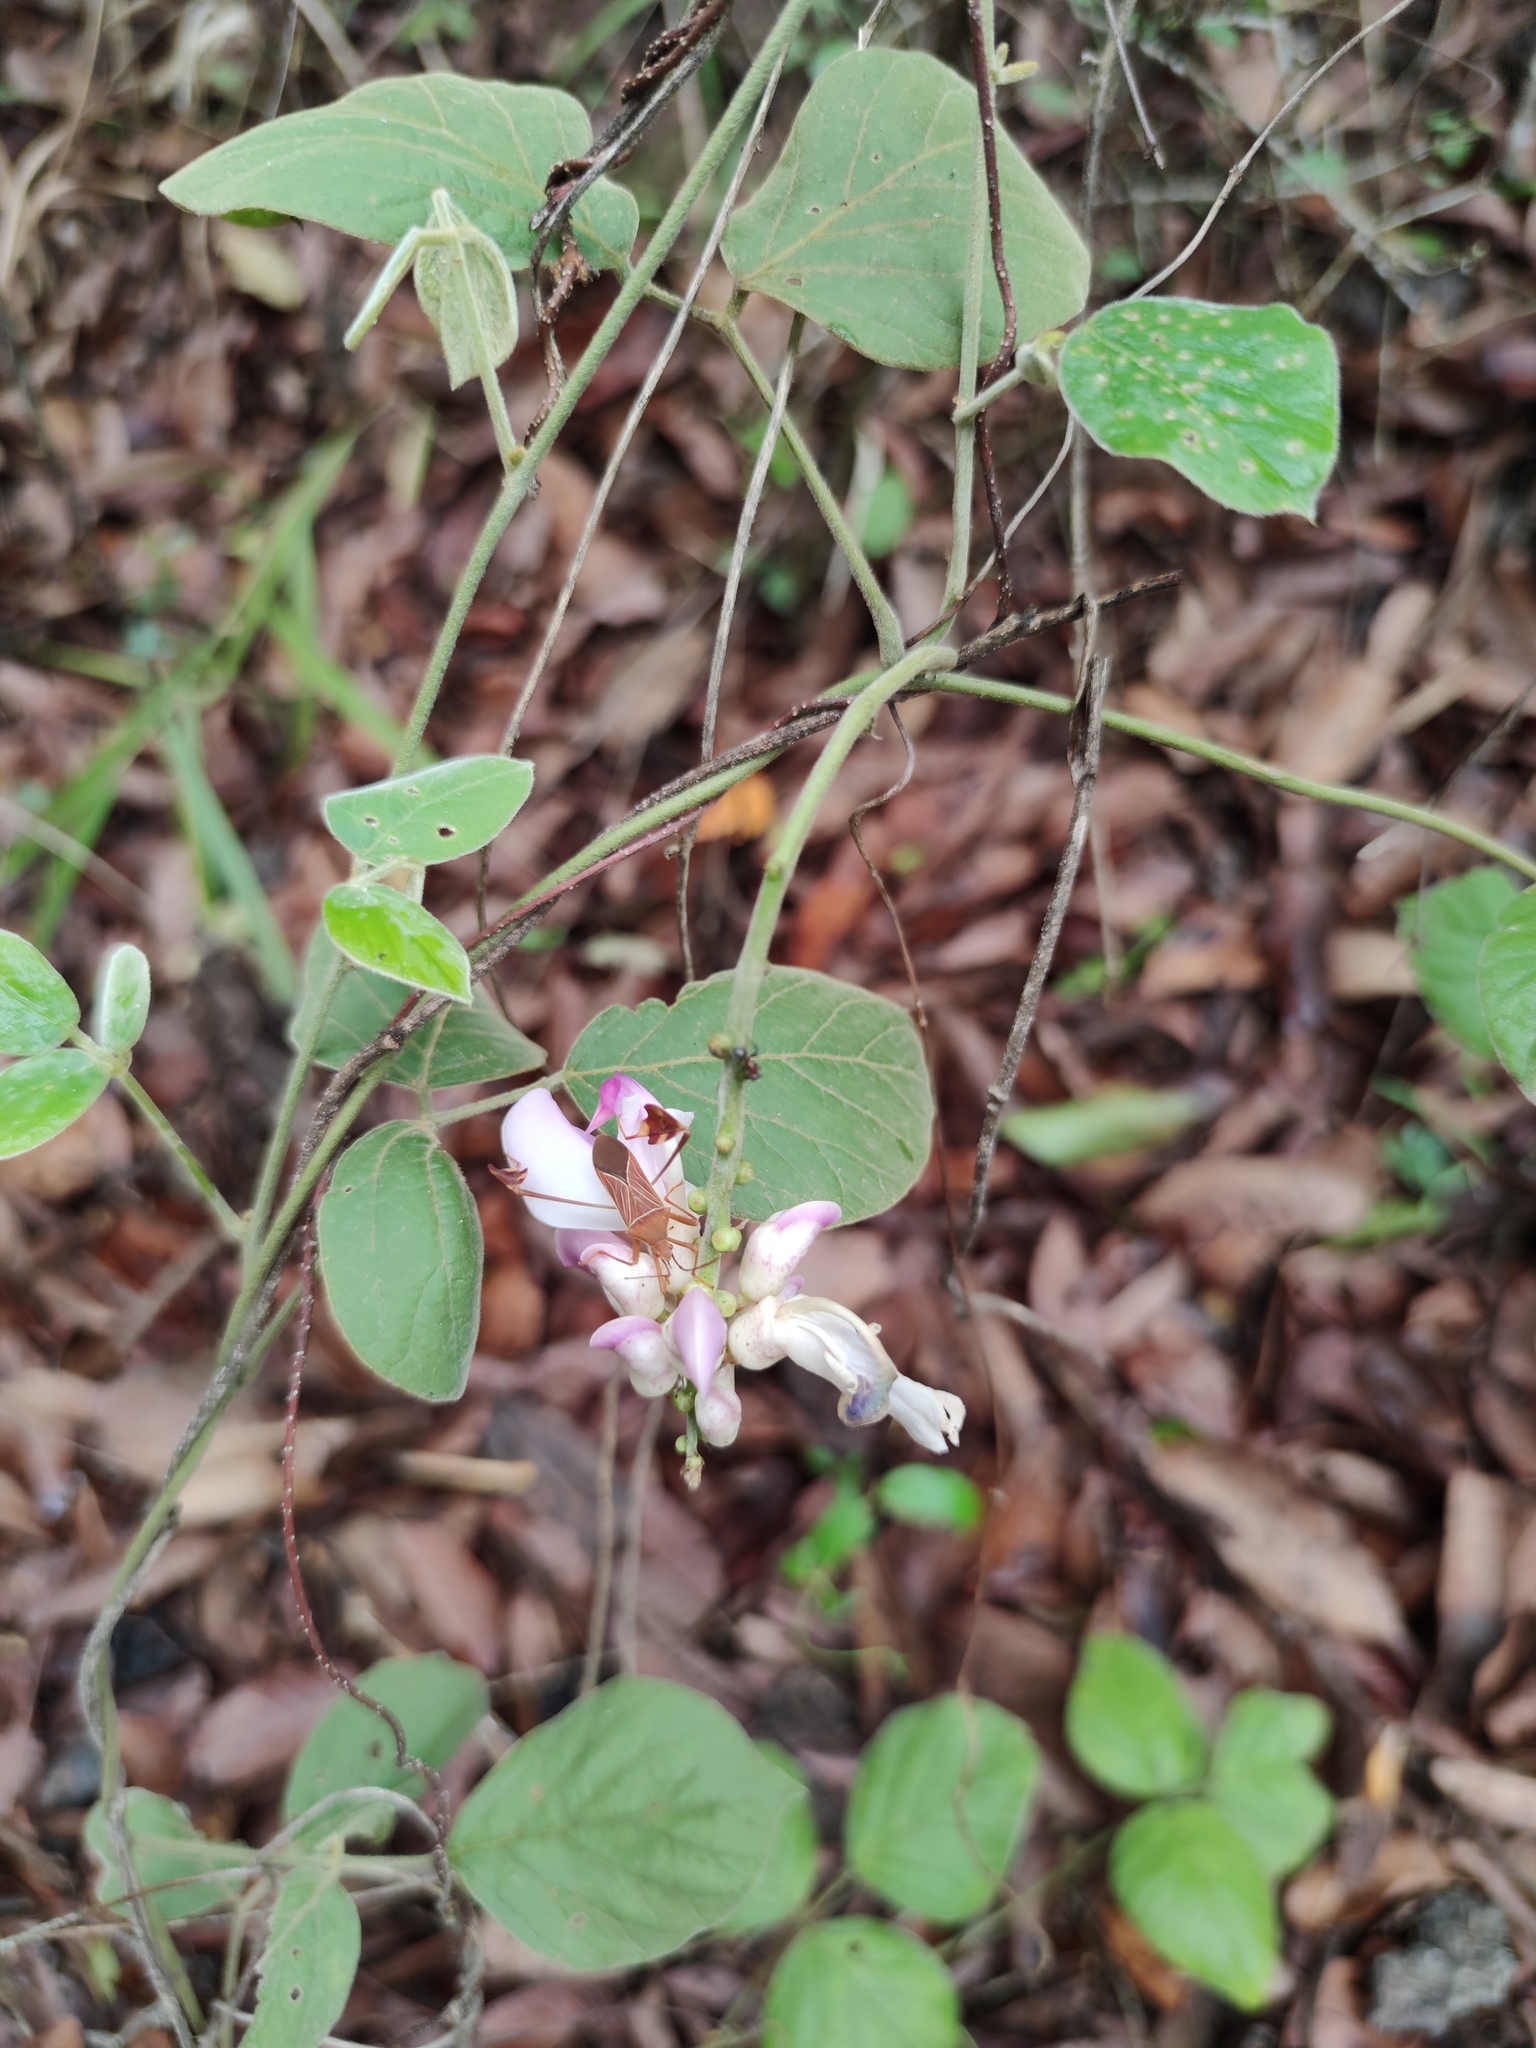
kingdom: Plantae
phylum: Tracheophyta
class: Magnoliopsida
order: Fabales
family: Fabaceae
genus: Canavalia
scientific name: Canavalia septentrionalis
